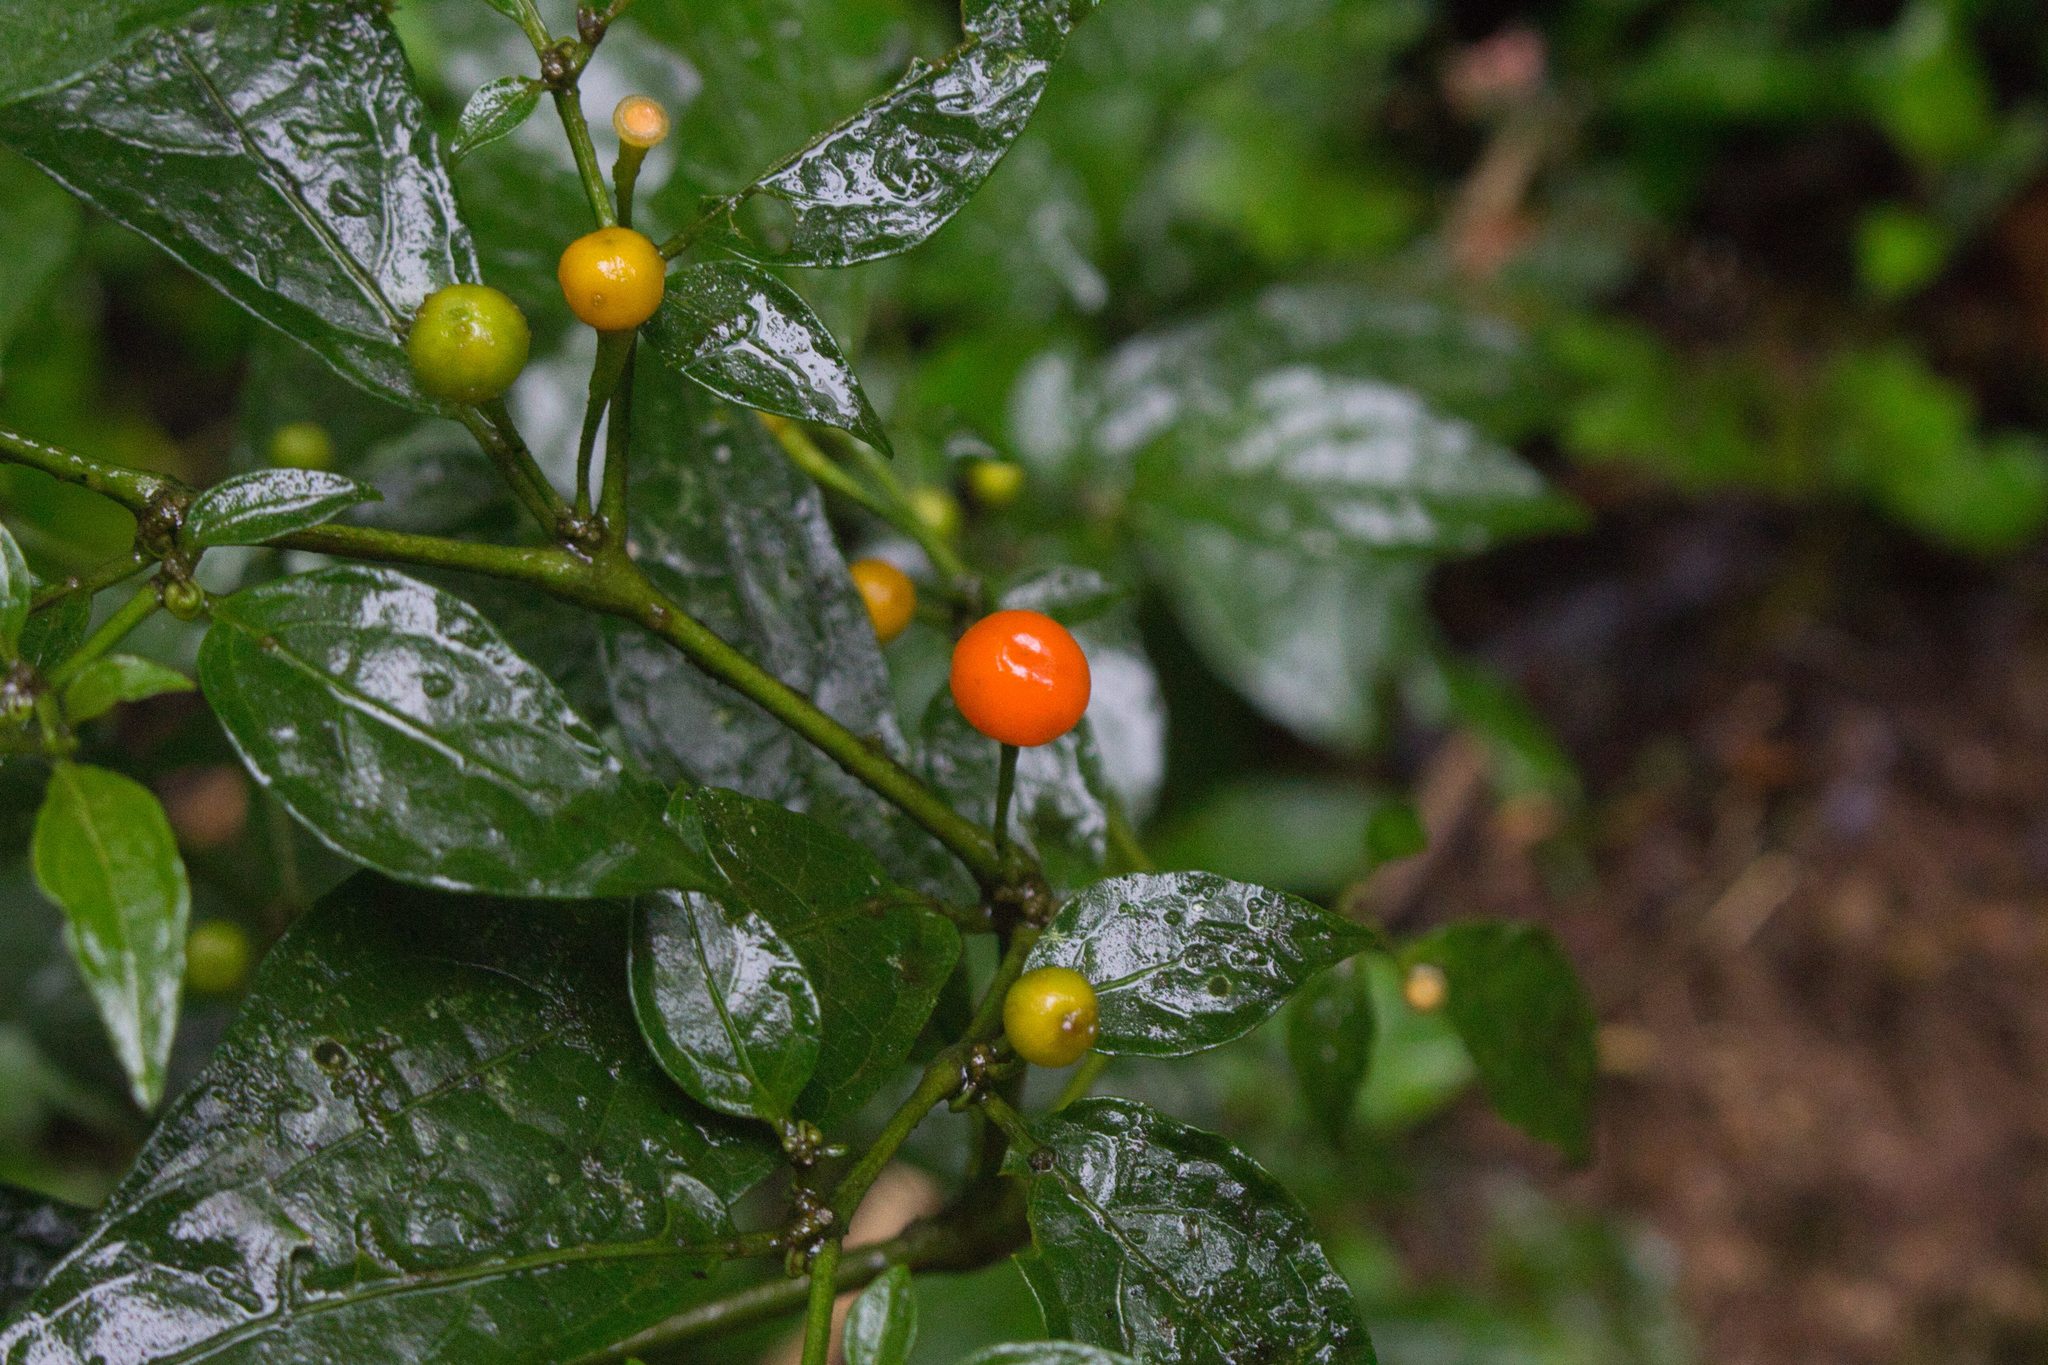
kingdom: Plantae
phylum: Tracheophyta
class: Magnoliopsida
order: Solanales
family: Solanaceae
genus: Witheringia
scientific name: Witheringia solanacea
